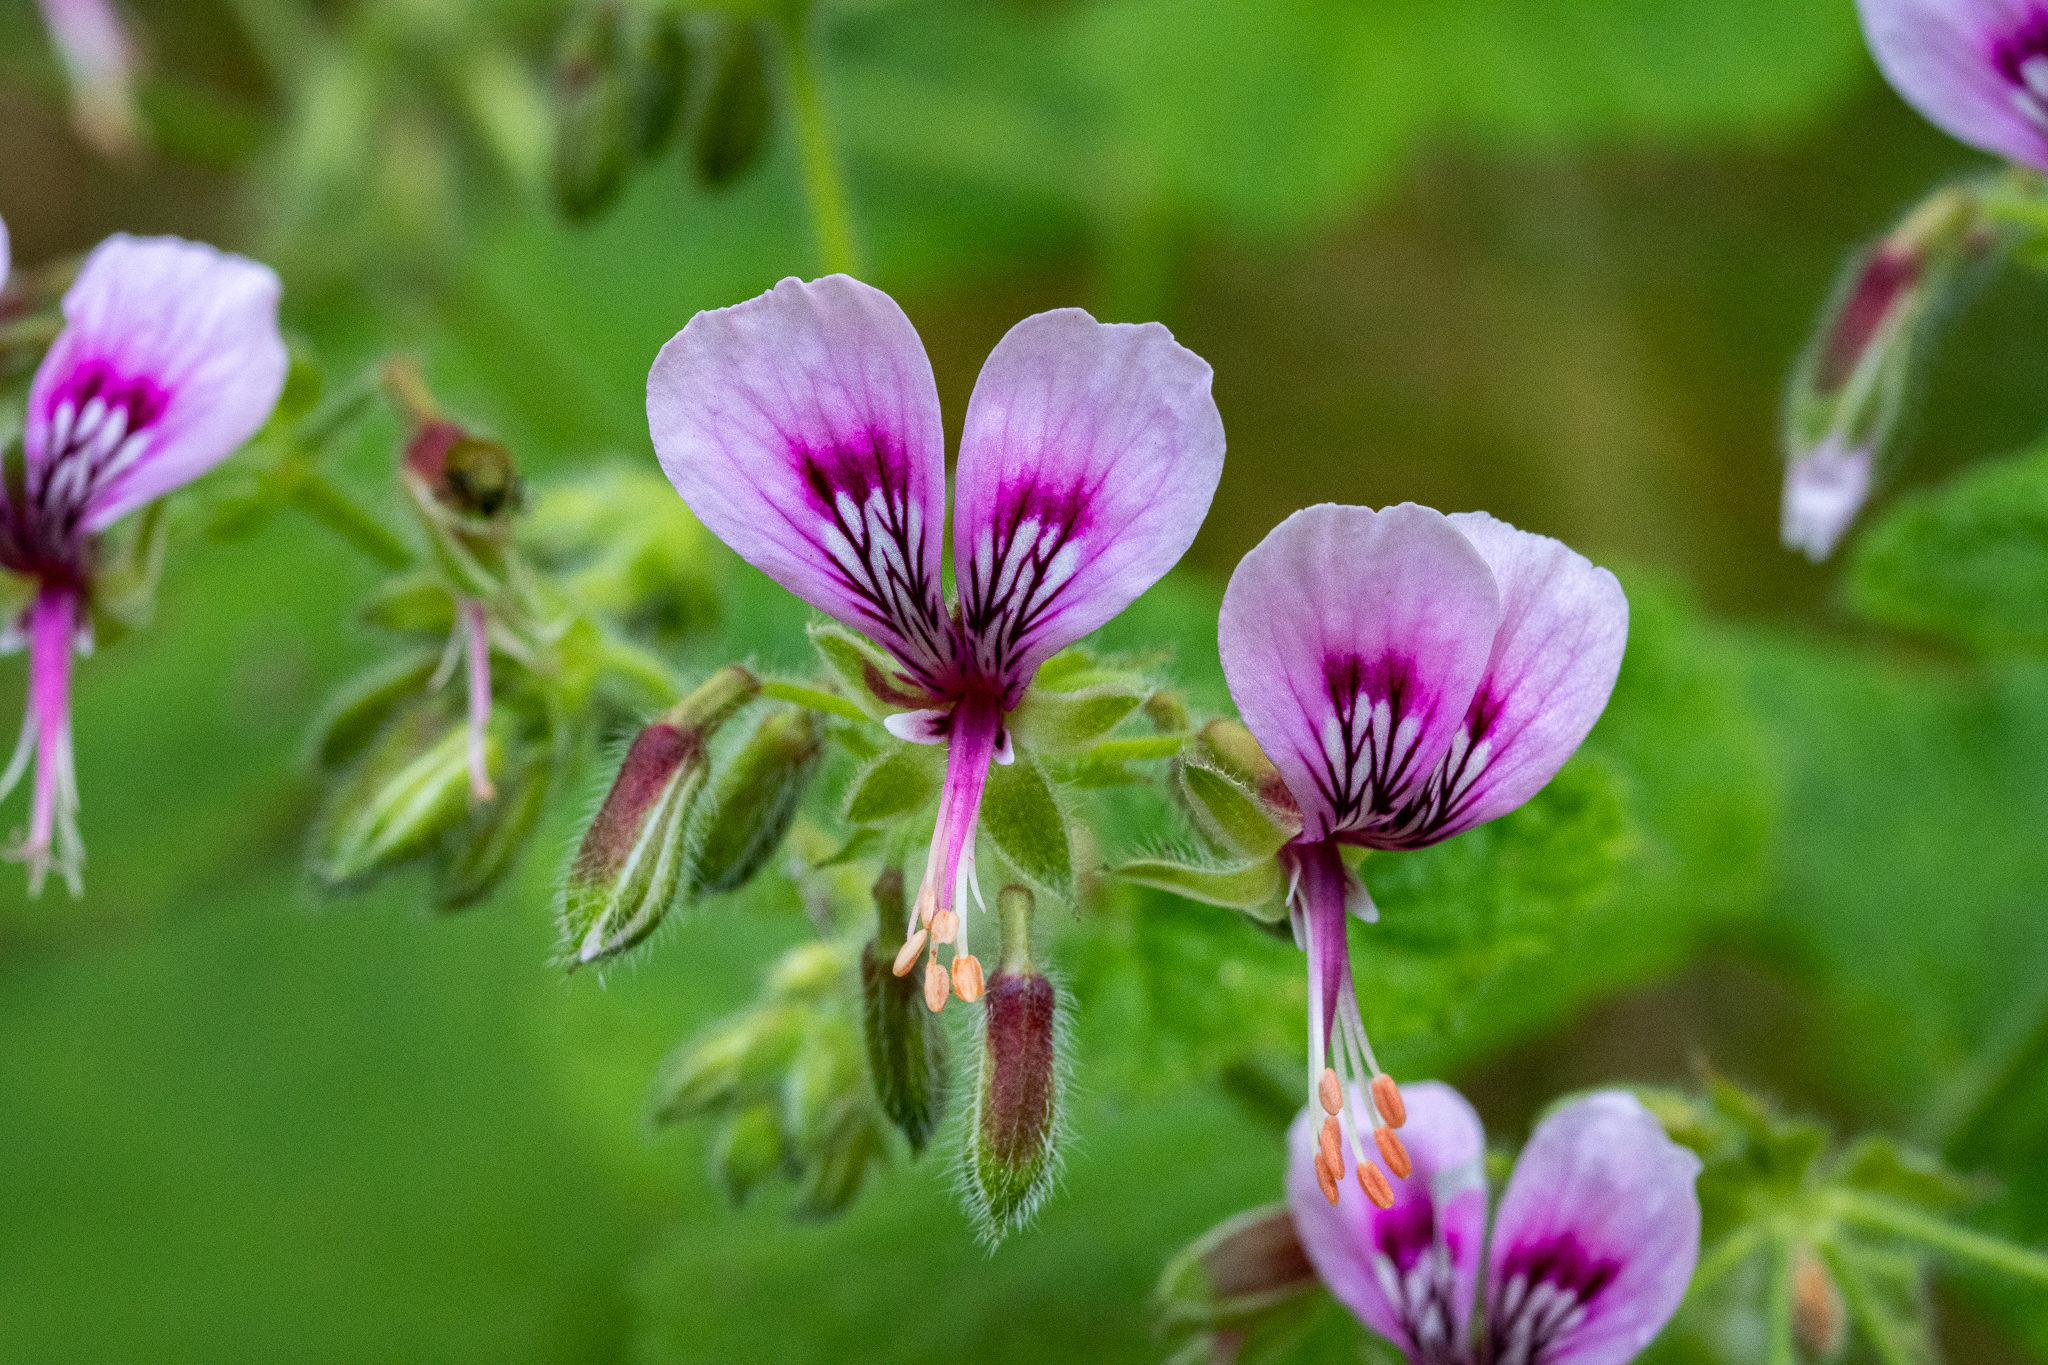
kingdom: Plantae
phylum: Tracheophyta
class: Magnoliopsida
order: Geraniales
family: Geraniaceae
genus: Pelargonium
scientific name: Pelargonium papilionaceum
